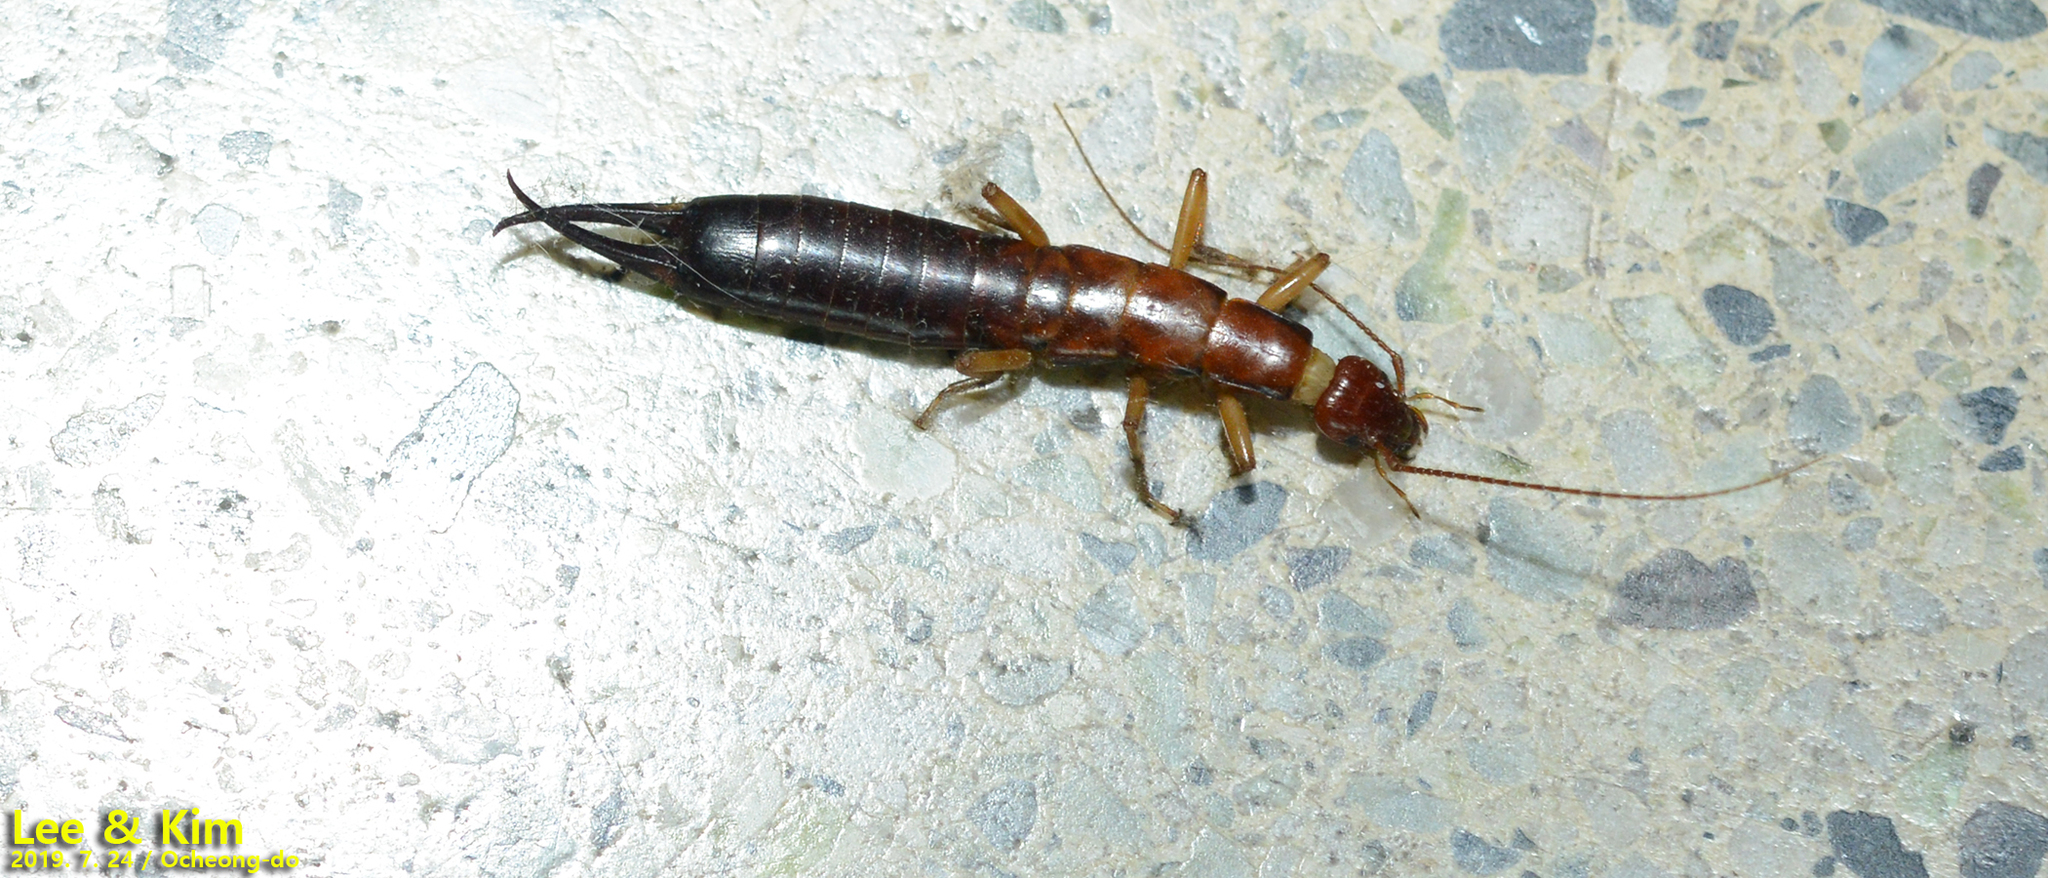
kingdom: Animalia
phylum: Arthropoda
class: Insecta
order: Dermaptera
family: Anisolabididae
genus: Anisolabis
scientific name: Anisolabis seirokui
